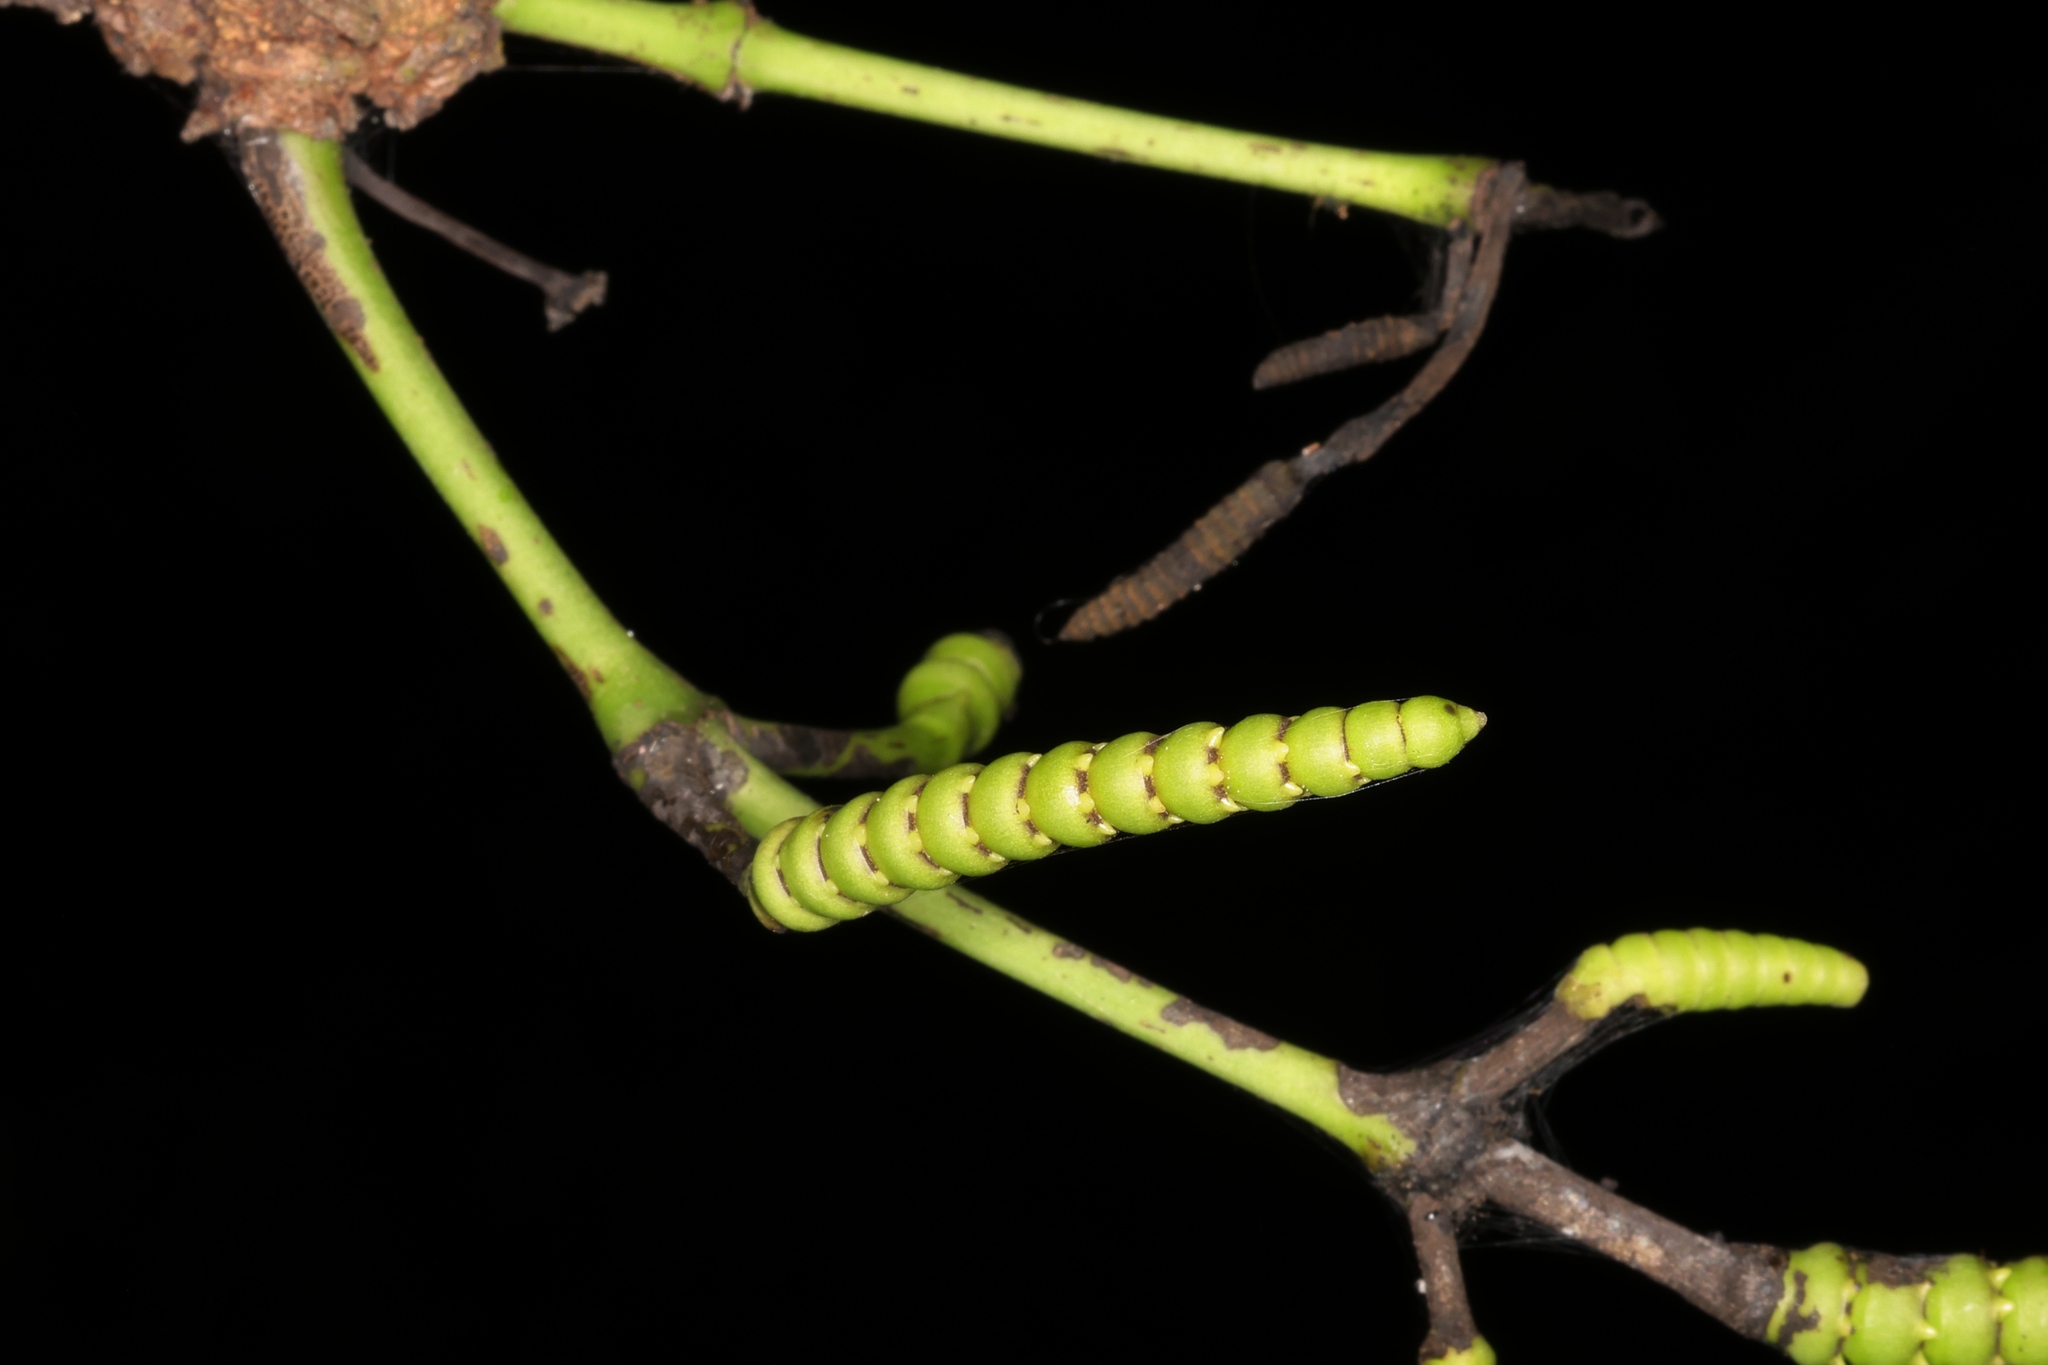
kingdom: Plantae
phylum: Tracheophyta
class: Gnetopsida
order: Gnetales
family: Gnetaceae
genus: Gnetum
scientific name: Gnetum luofuense
